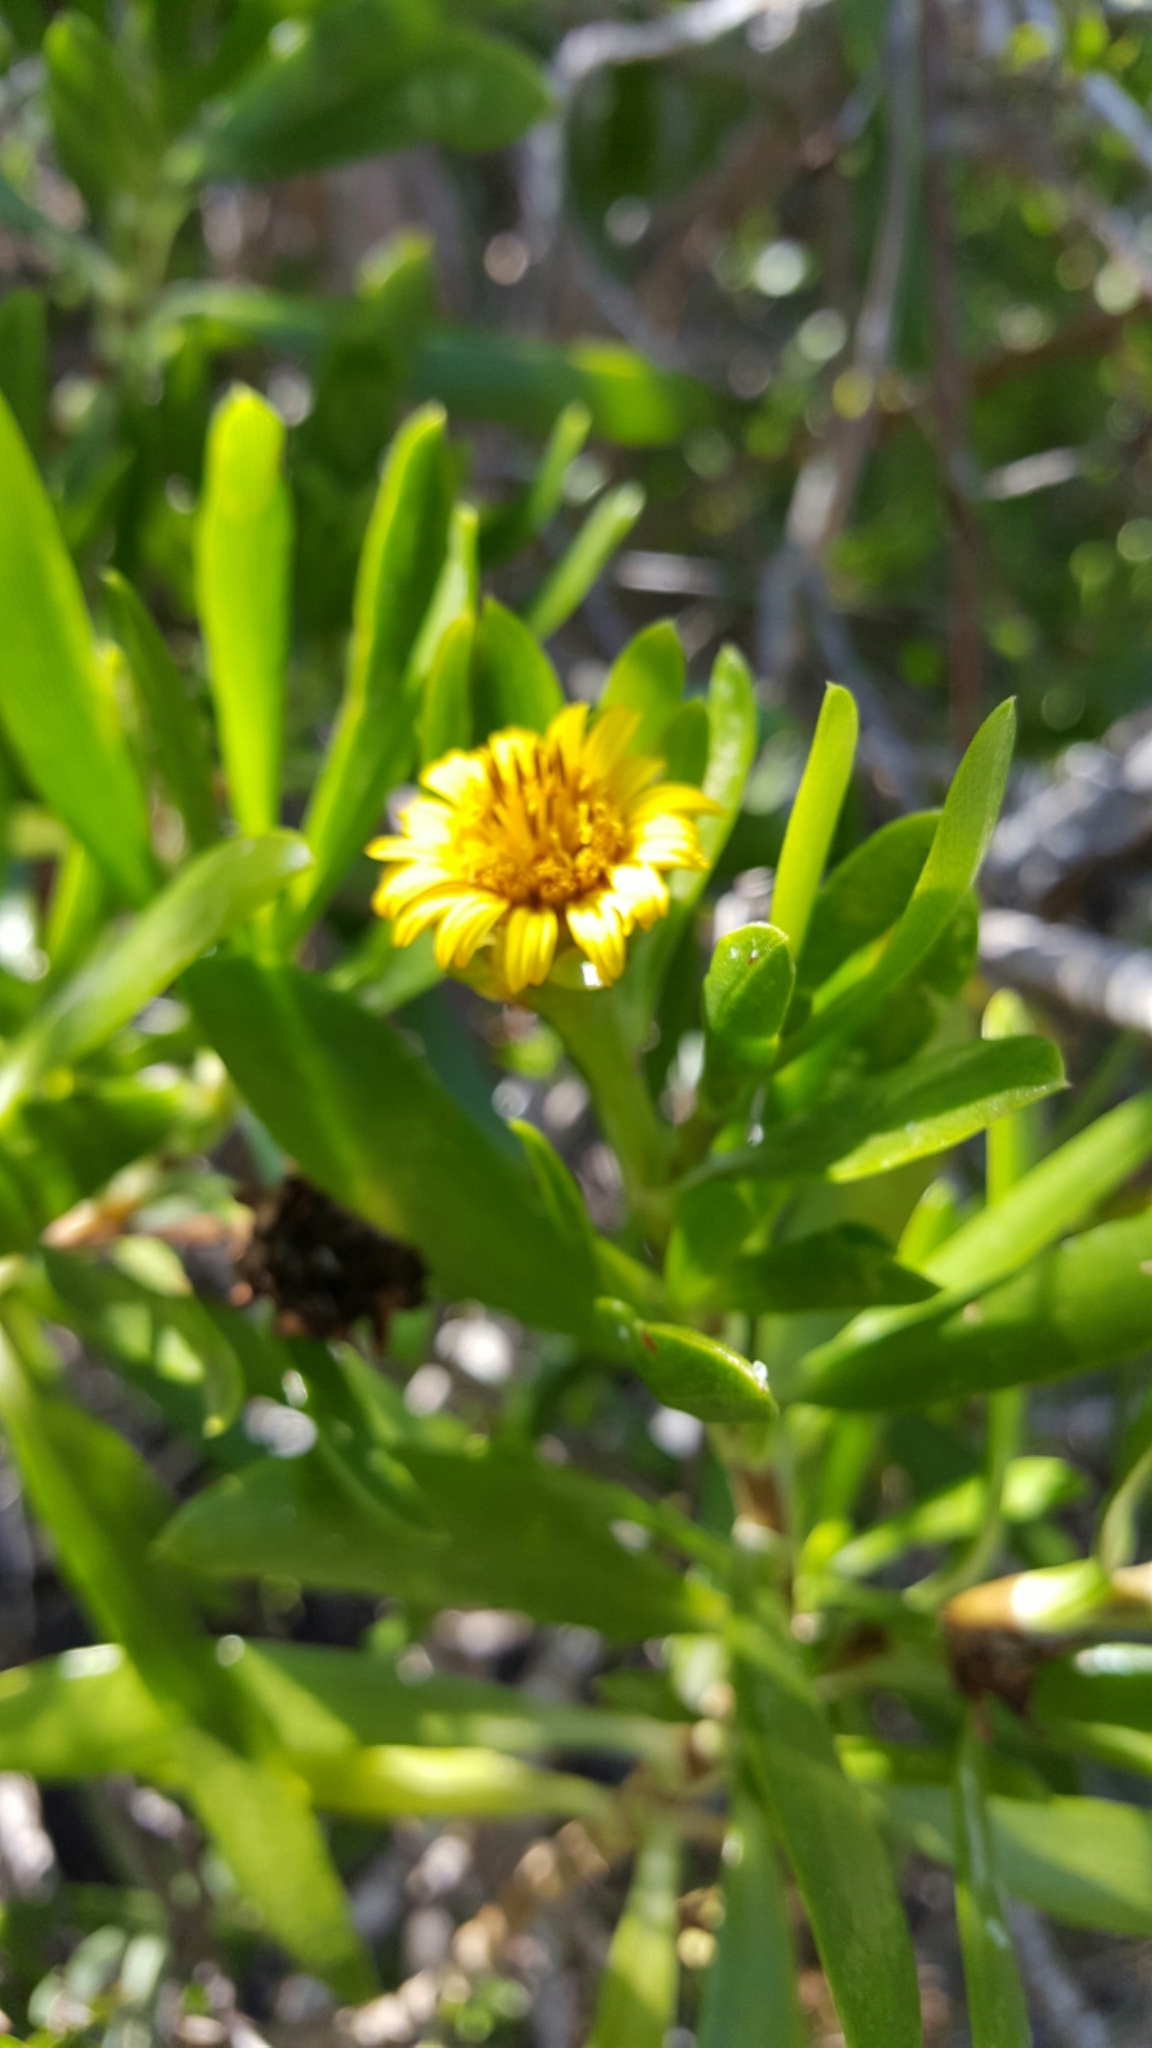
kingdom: Plantae
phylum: Tracheophyta
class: Magnoliopsida
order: Asterales
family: Asteraceae
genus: Borrichia
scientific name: Borrichia arborescens
